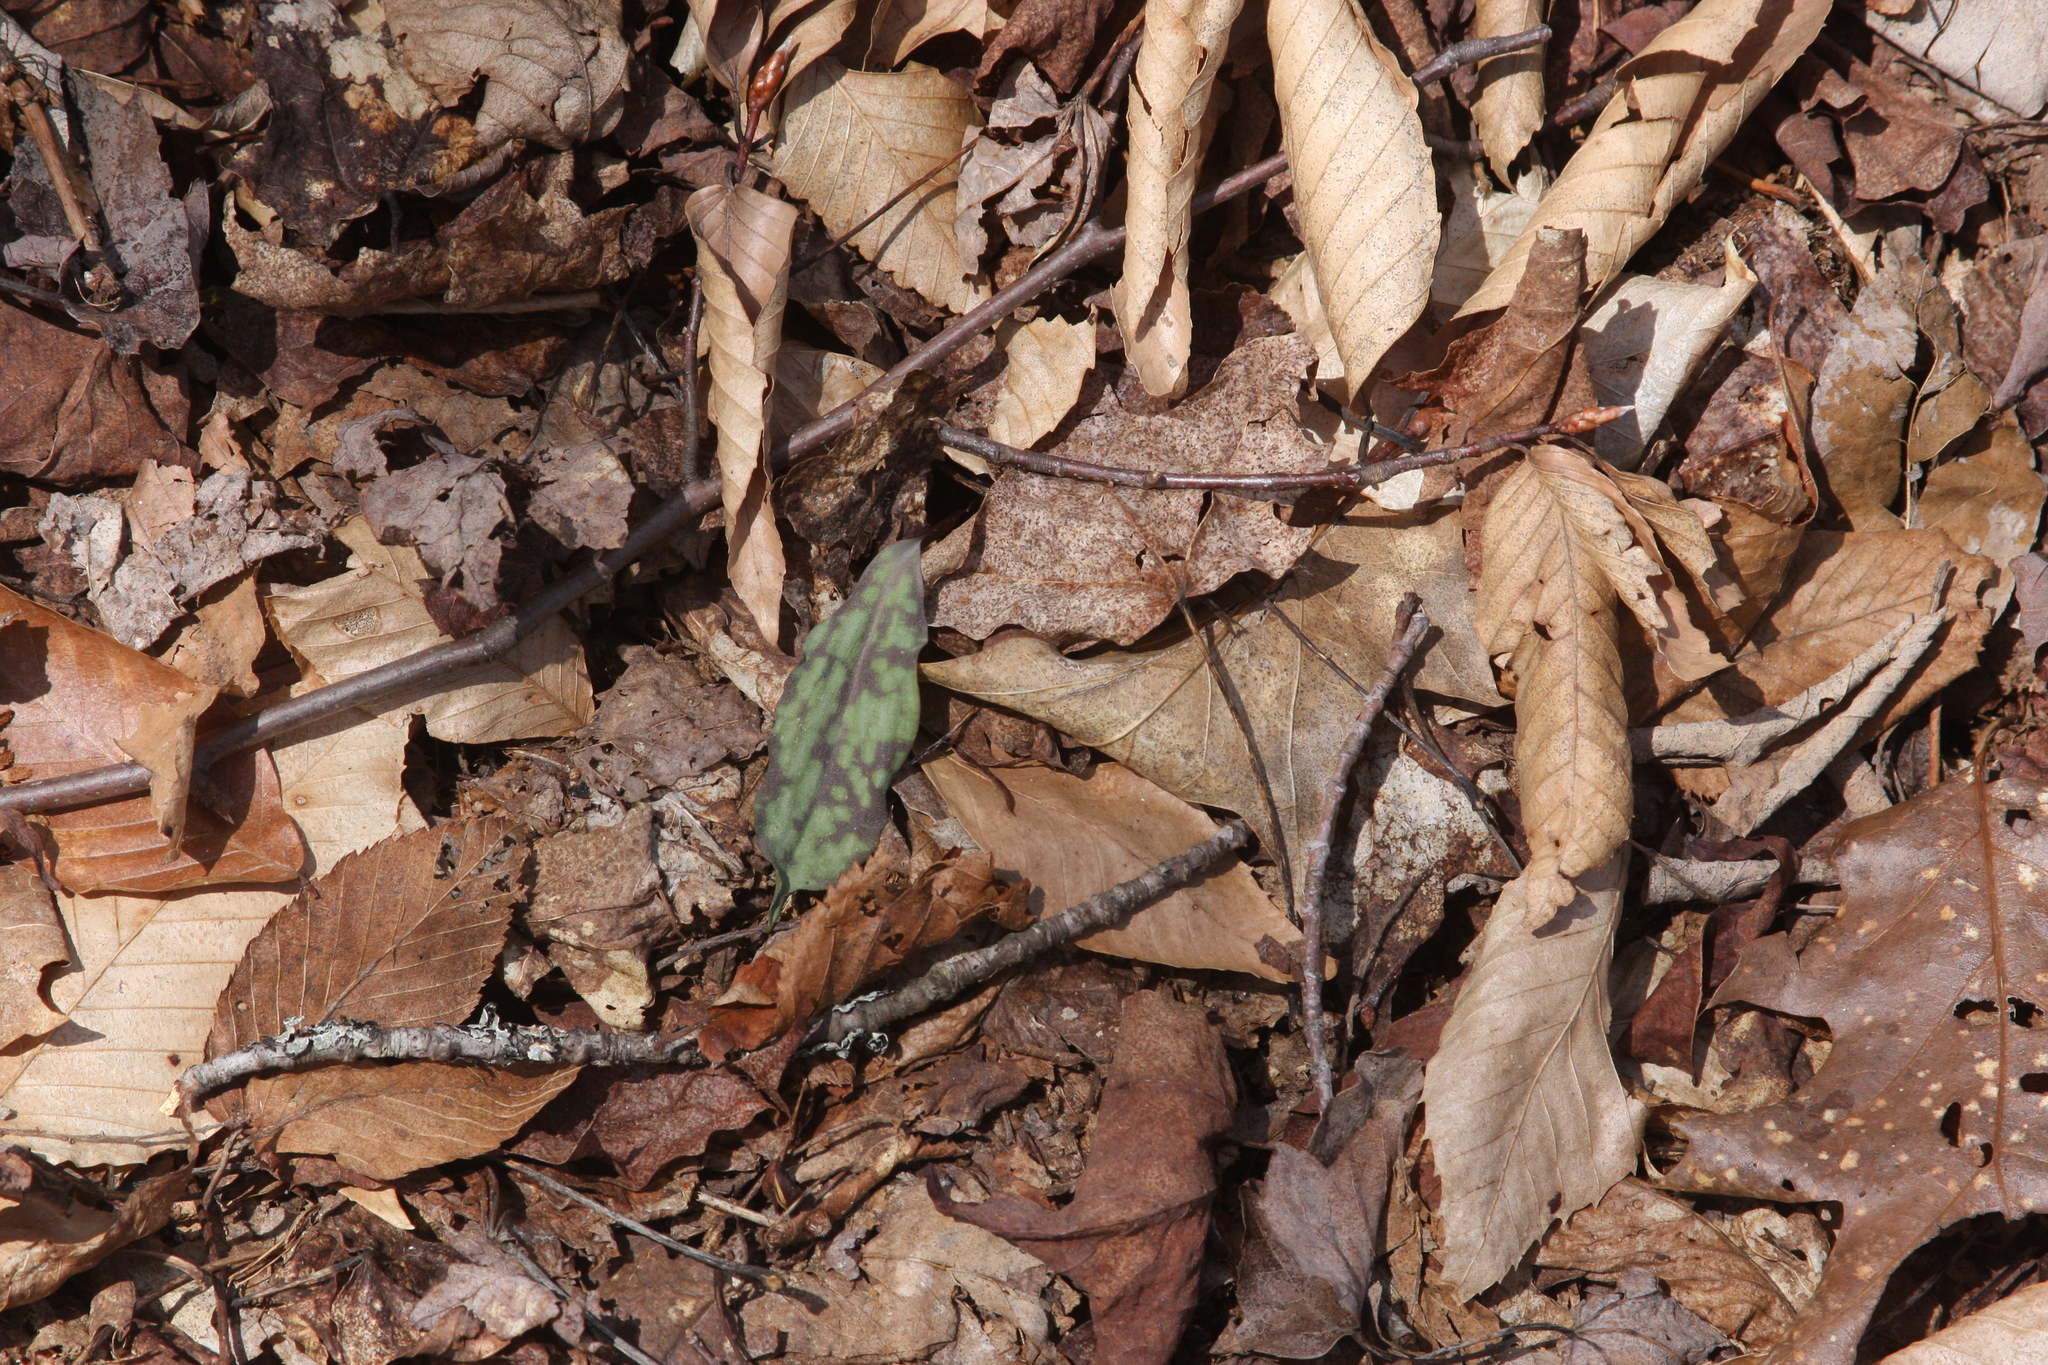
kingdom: Plantae
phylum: Tracheophyta
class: Liliopsida
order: Liliales
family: Liliaceae
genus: Erythronium
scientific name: Erythronium americanum
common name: Yellow adder's-tongue
